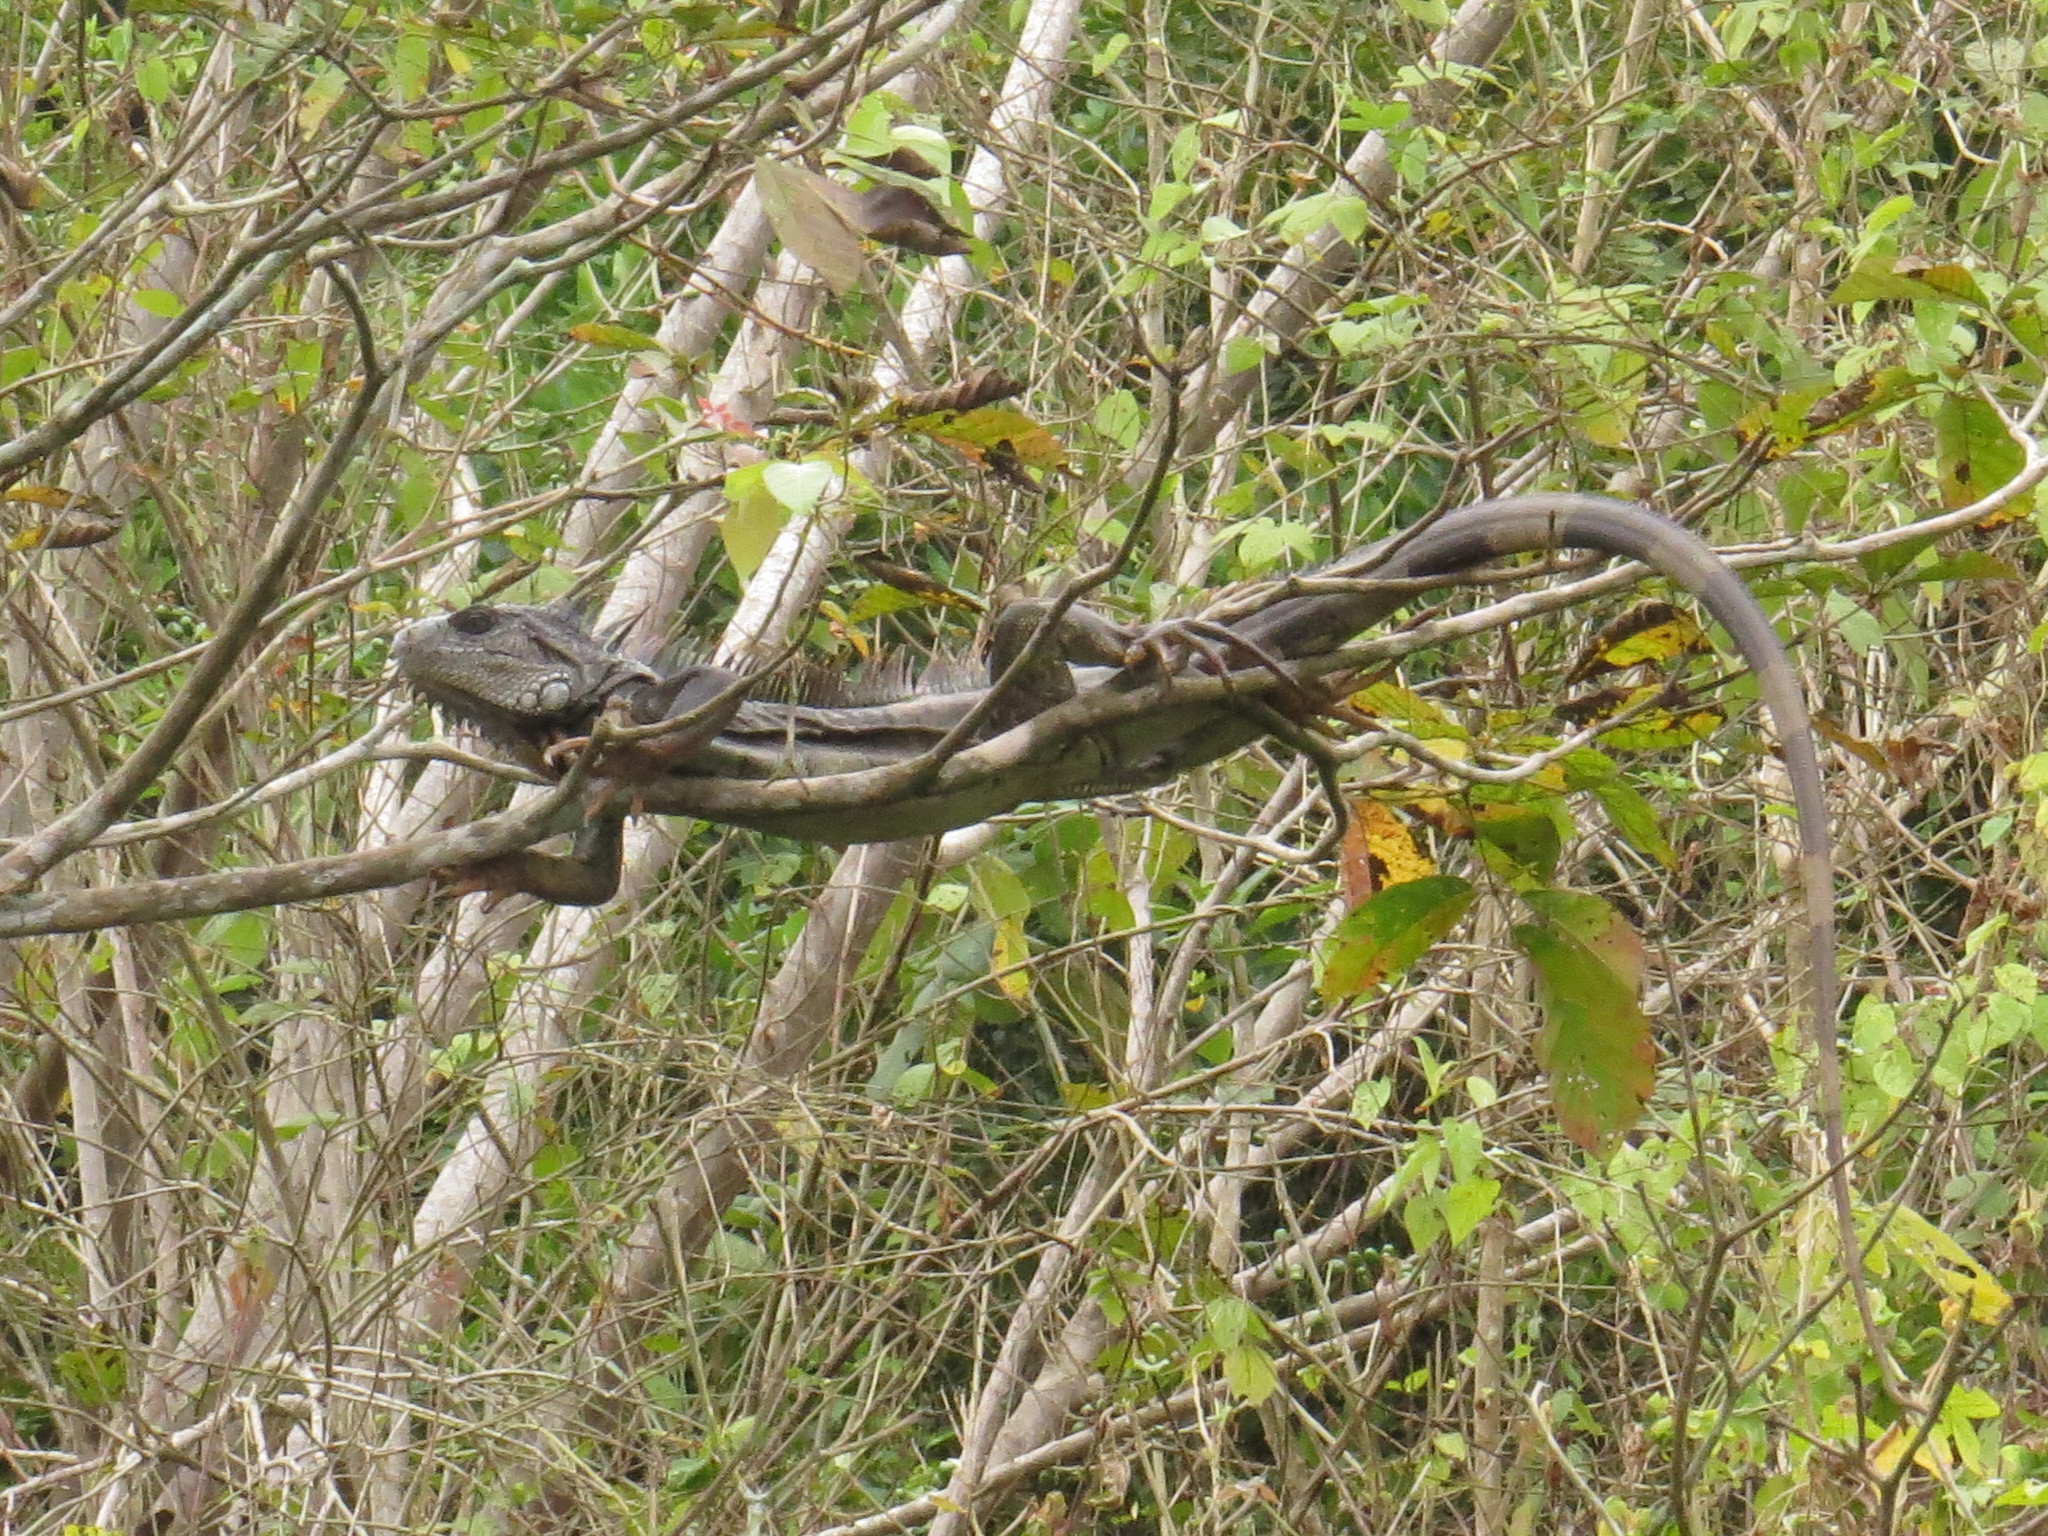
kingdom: Animalia
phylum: Chordata
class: Squamata
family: Iguanidae
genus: Iguana
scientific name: Iguana iguana
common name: Green iguana
